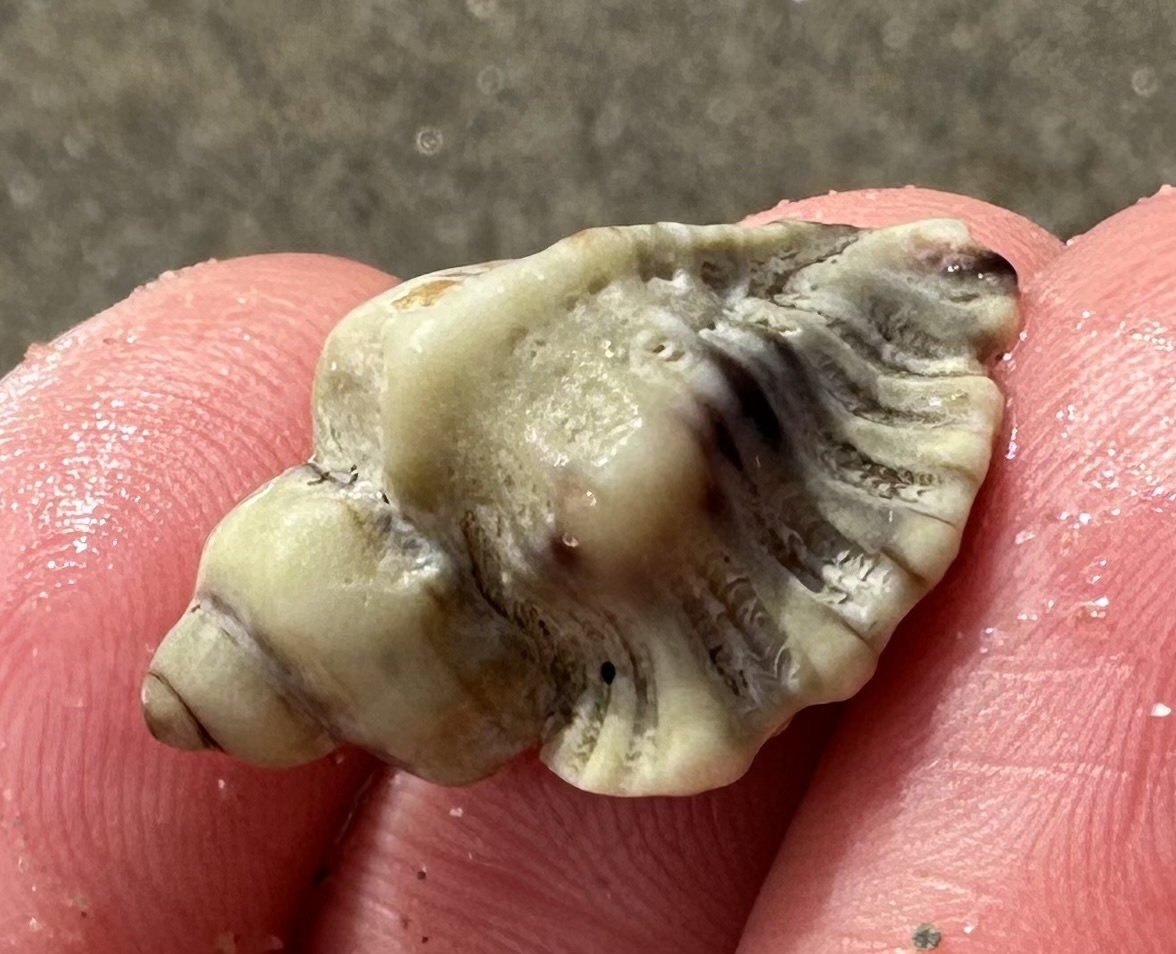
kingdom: Animalia
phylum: Mollusca
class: Gastropoda
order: Neogastropoda
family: Muricidae
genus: Ocenebra
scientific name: Ocenebra erinaceus
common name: European sting winkle
